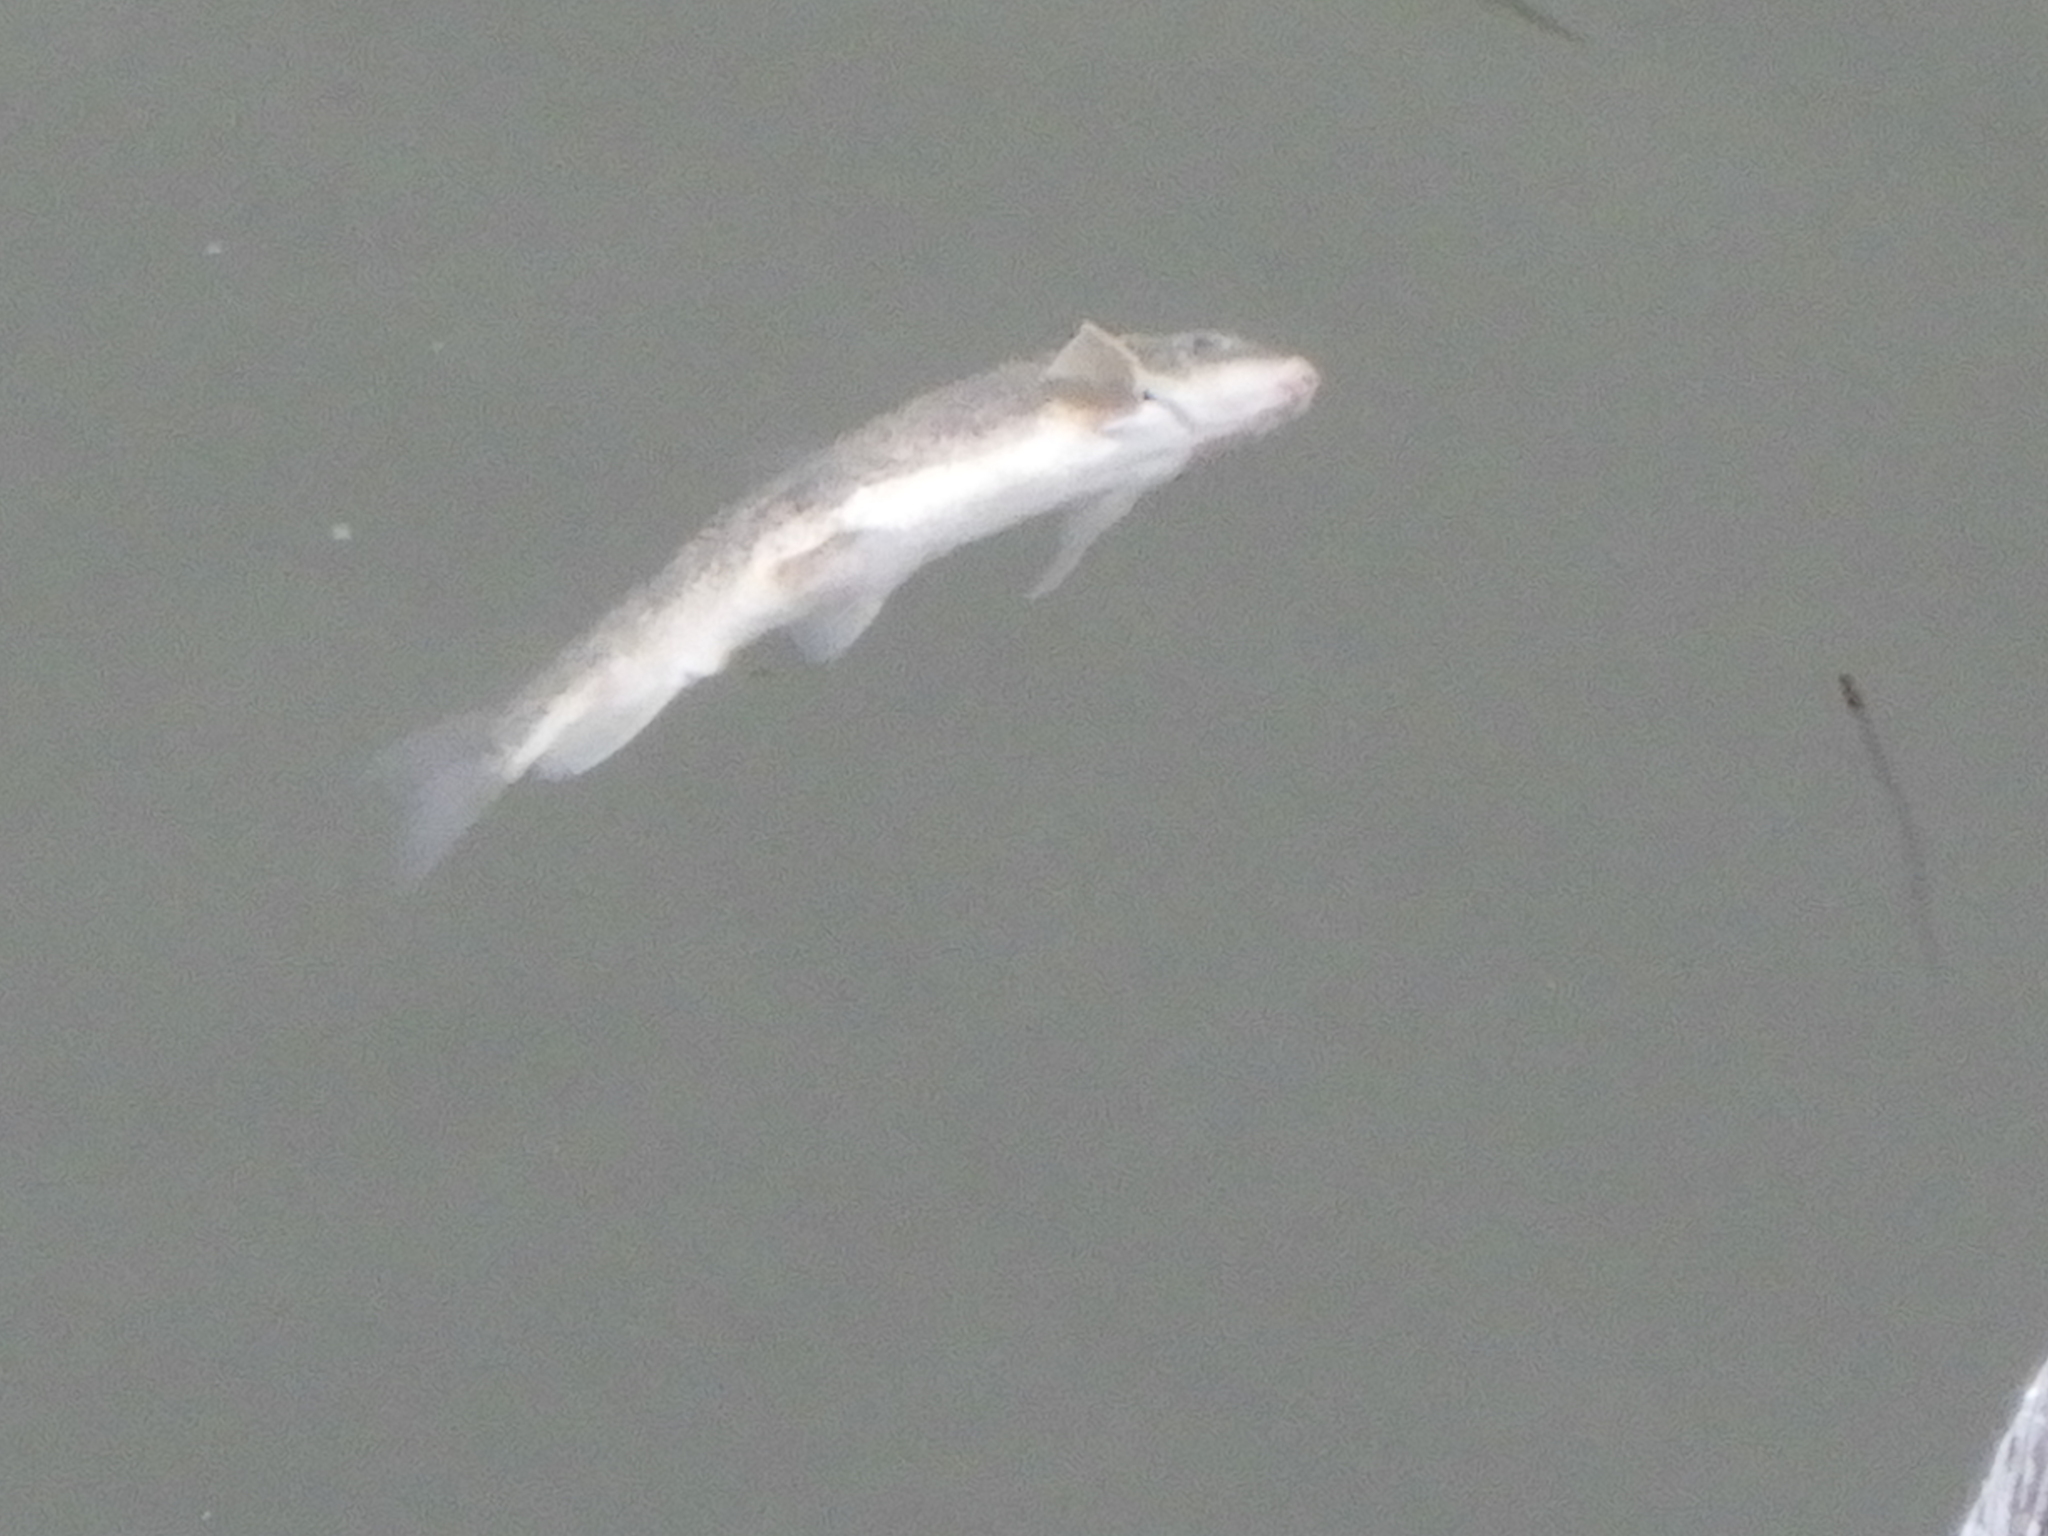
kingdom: Animalia
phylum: Chordata
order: Cypriniformes
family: Catostomidae
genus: Catostomus
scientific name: Catostomus commersonii
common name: White sucker
